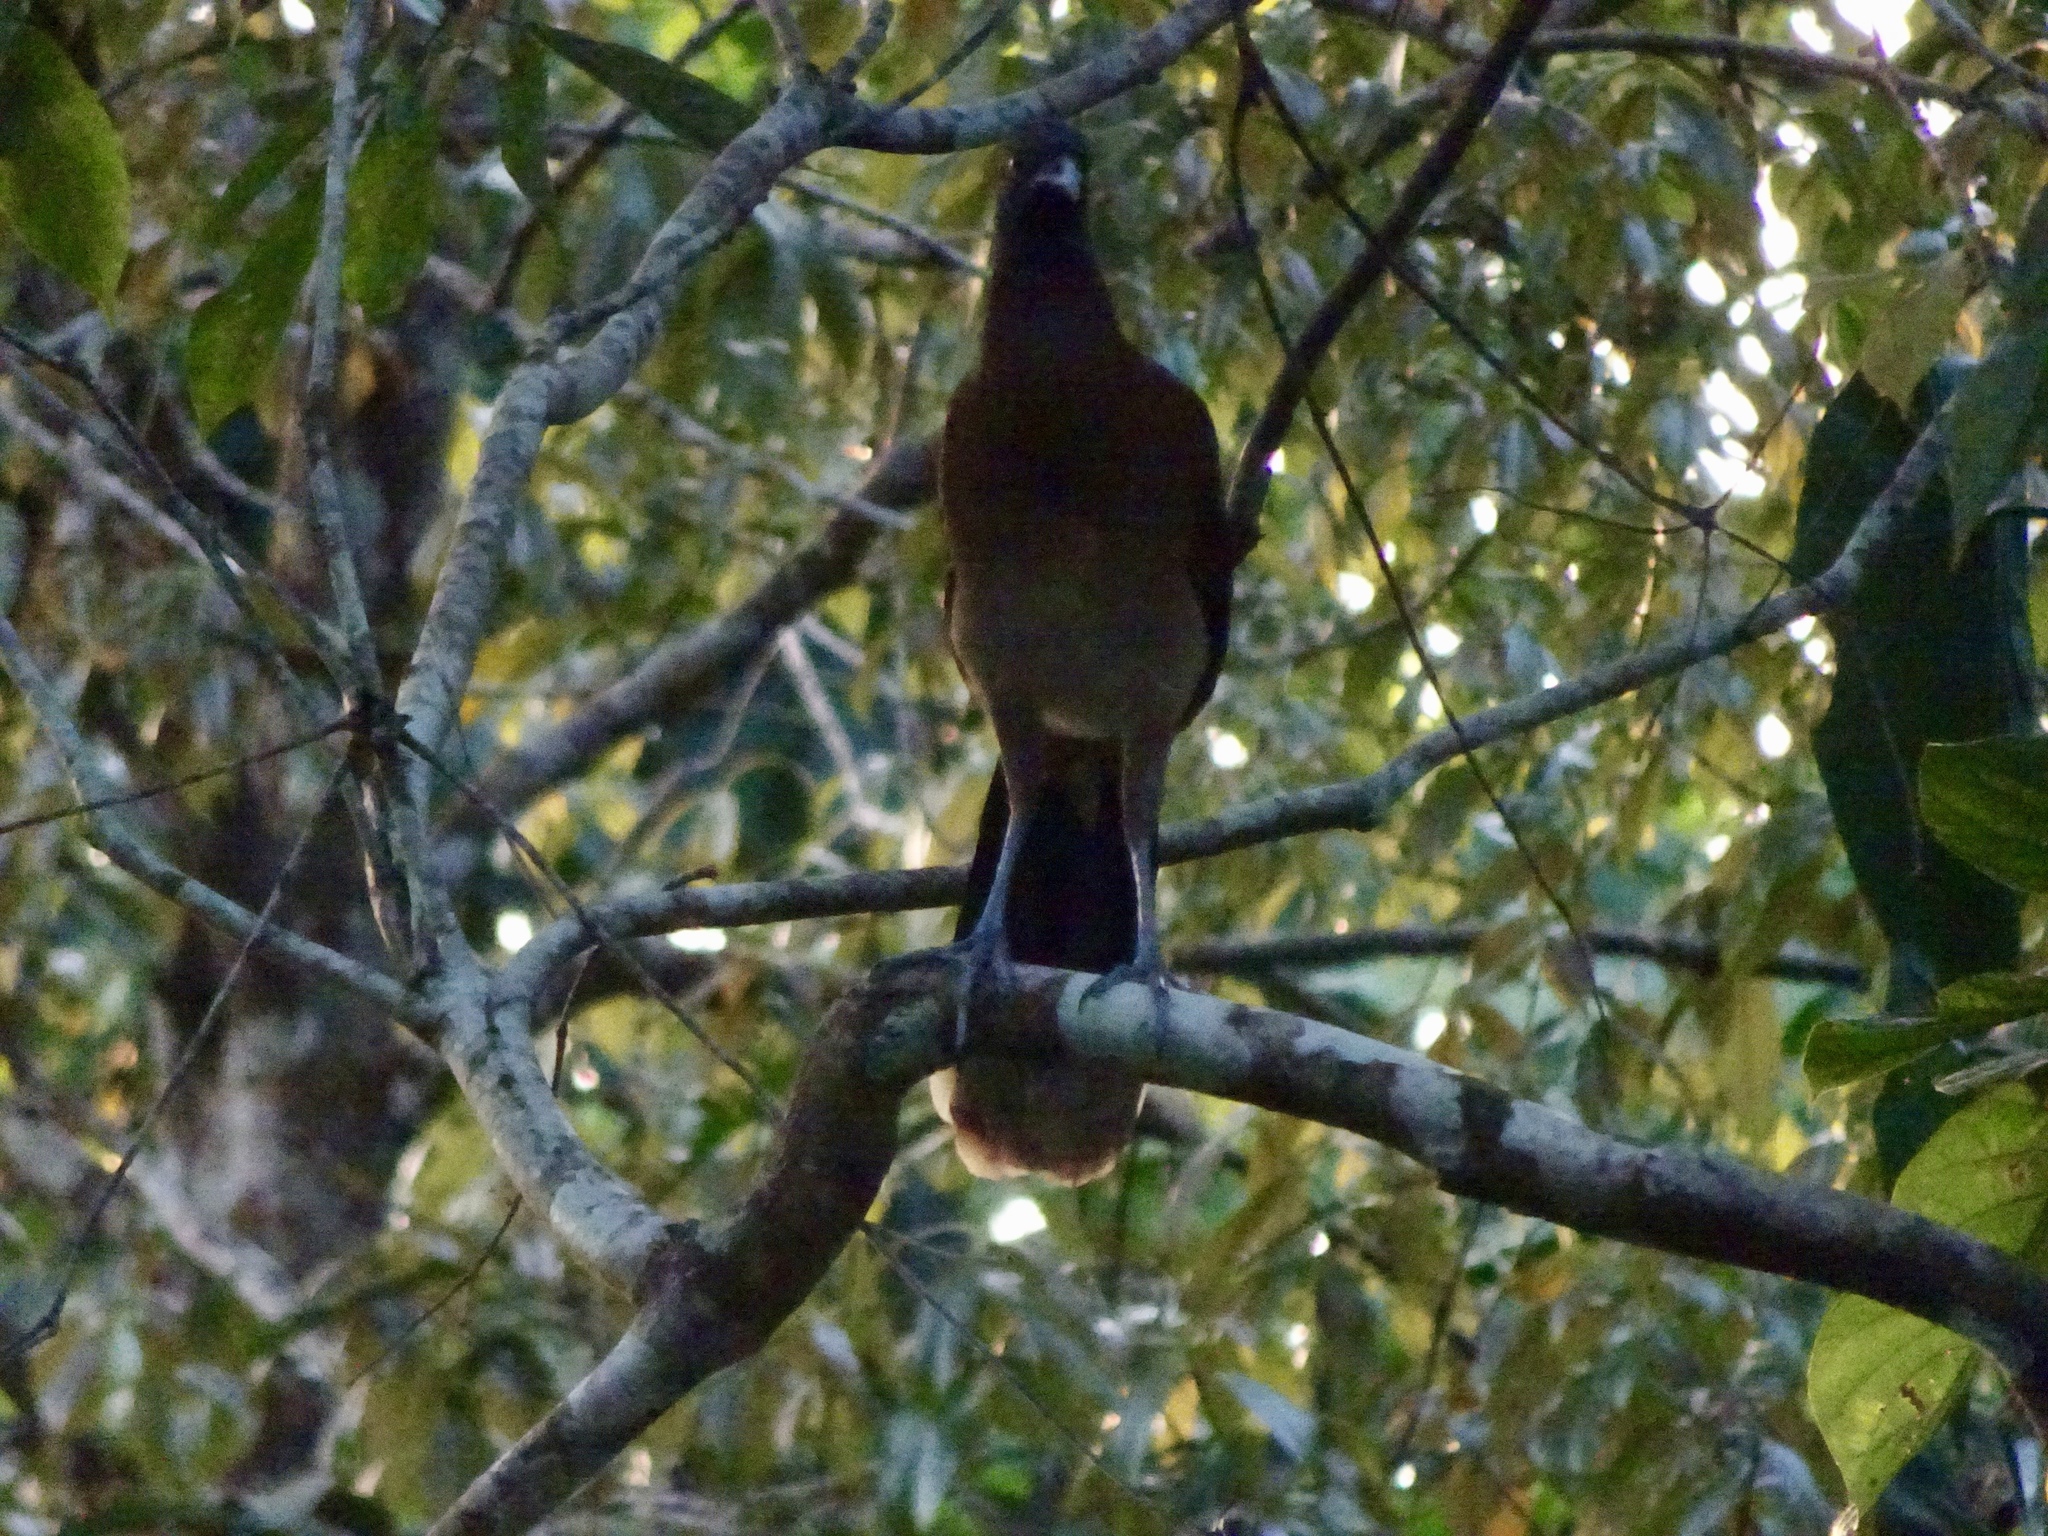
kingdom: Animalia
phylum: Chordata
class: Aves
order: Galliformes
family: Cracidae
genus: Ortalis
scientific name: Ortalis cinereiceps
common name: Grey-headed chachalaca
